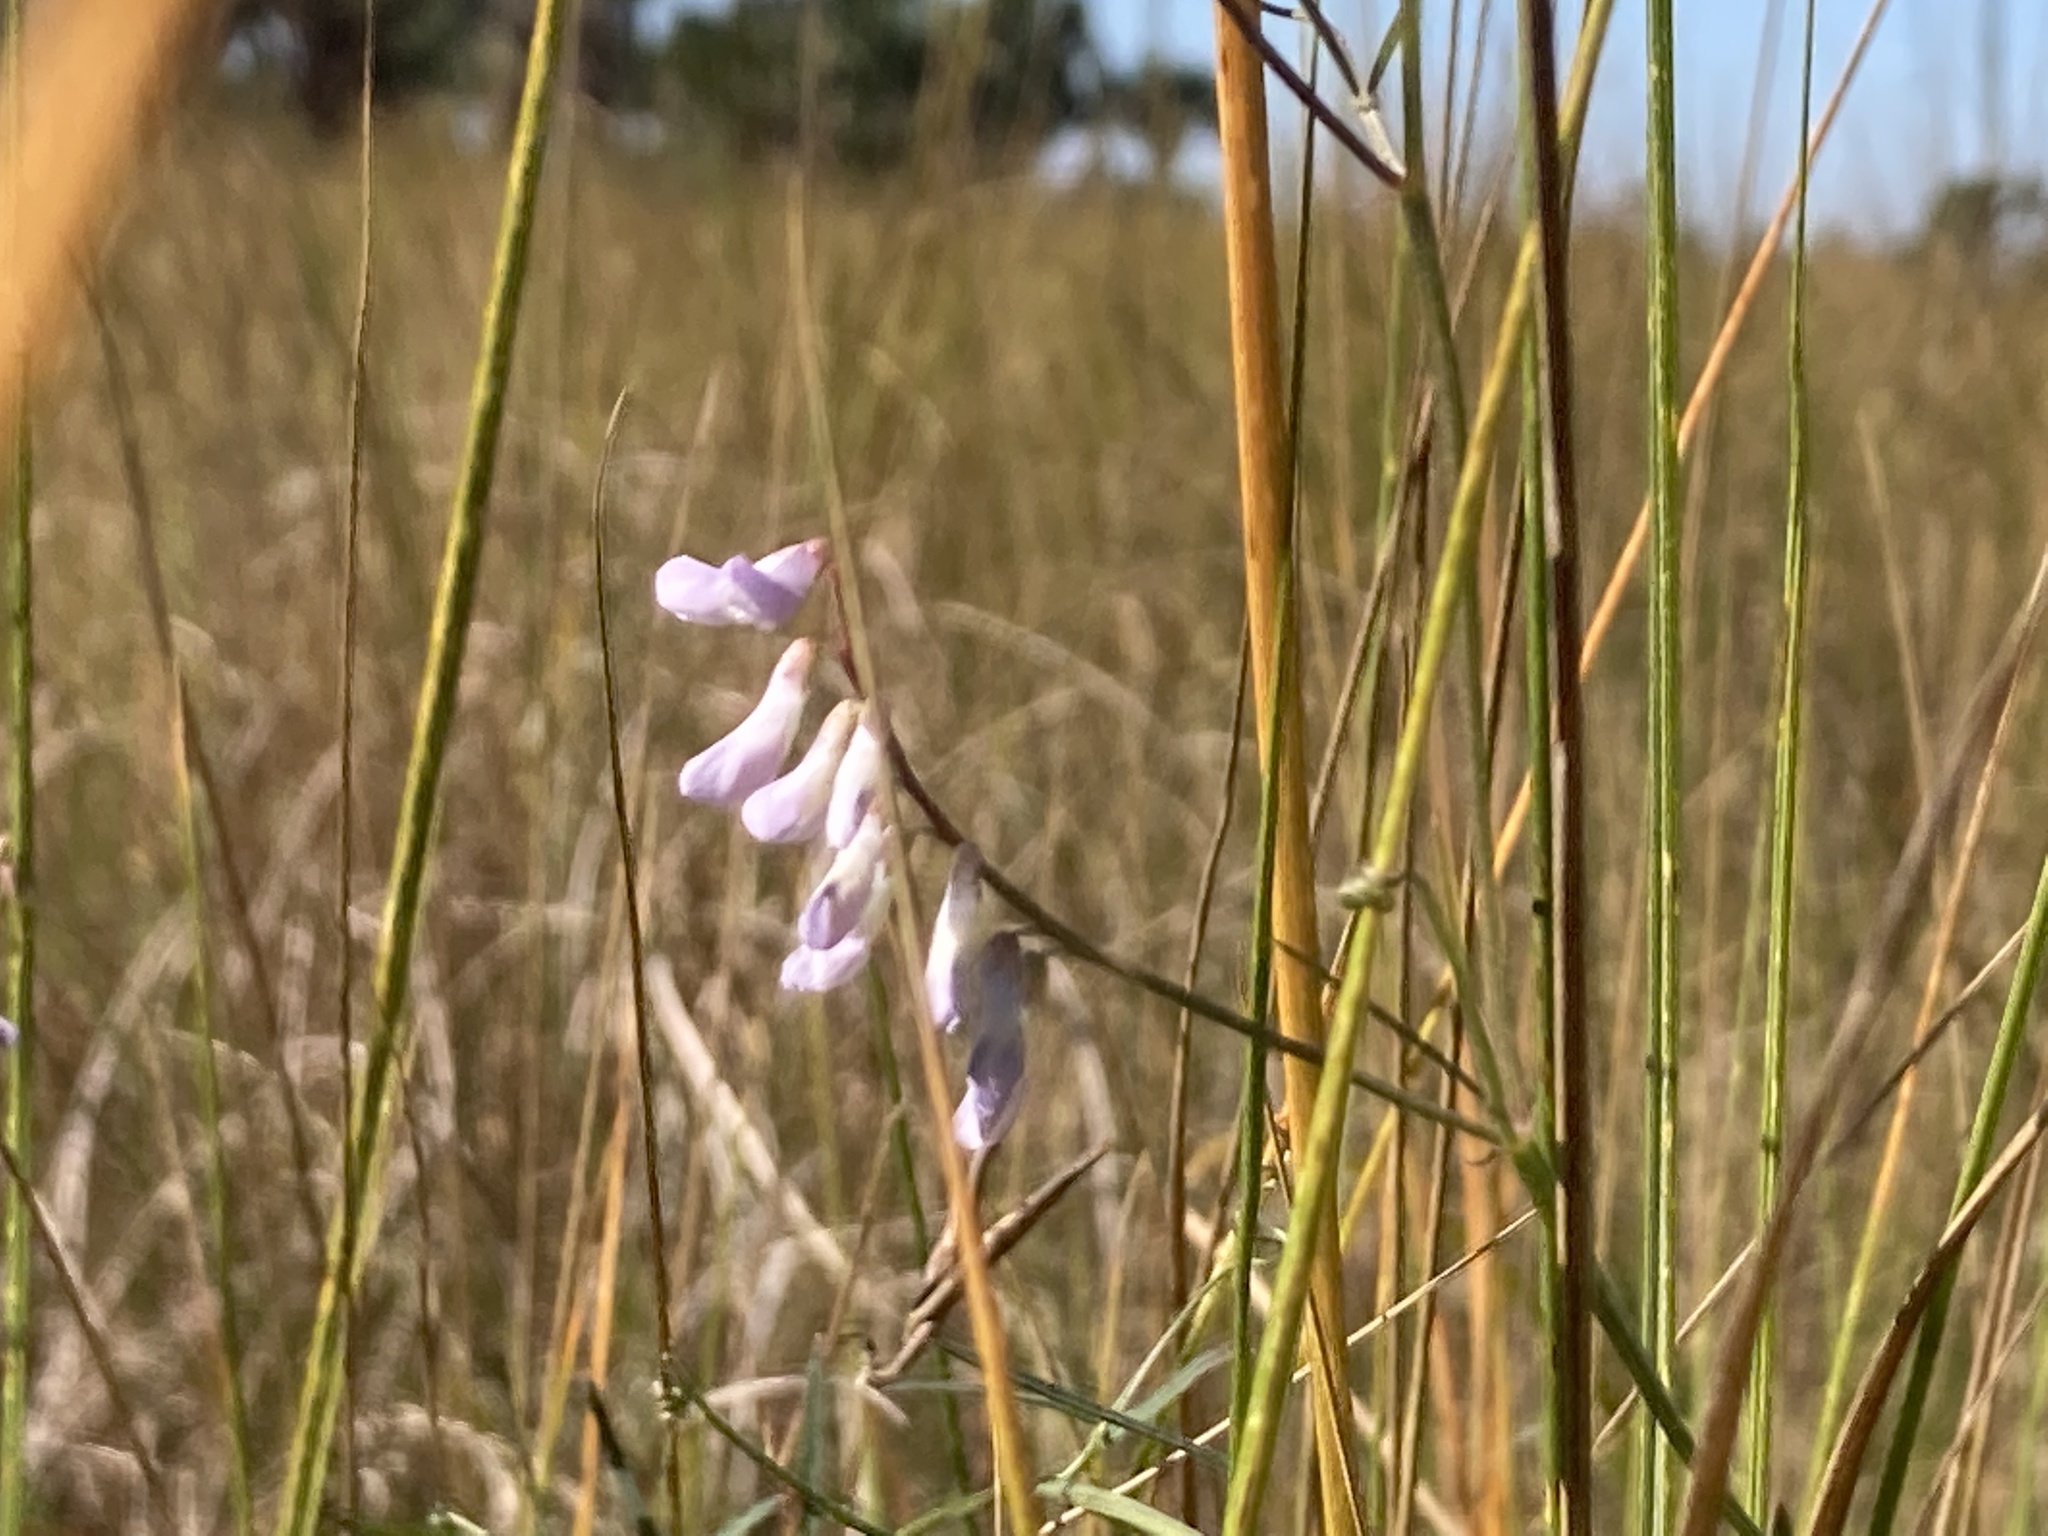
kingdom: Plantae
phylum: Tracheophyta
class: Magnoliopsida
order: Fabales
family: Fabaceae
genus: Vicia
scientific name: Vicia acutifolia
